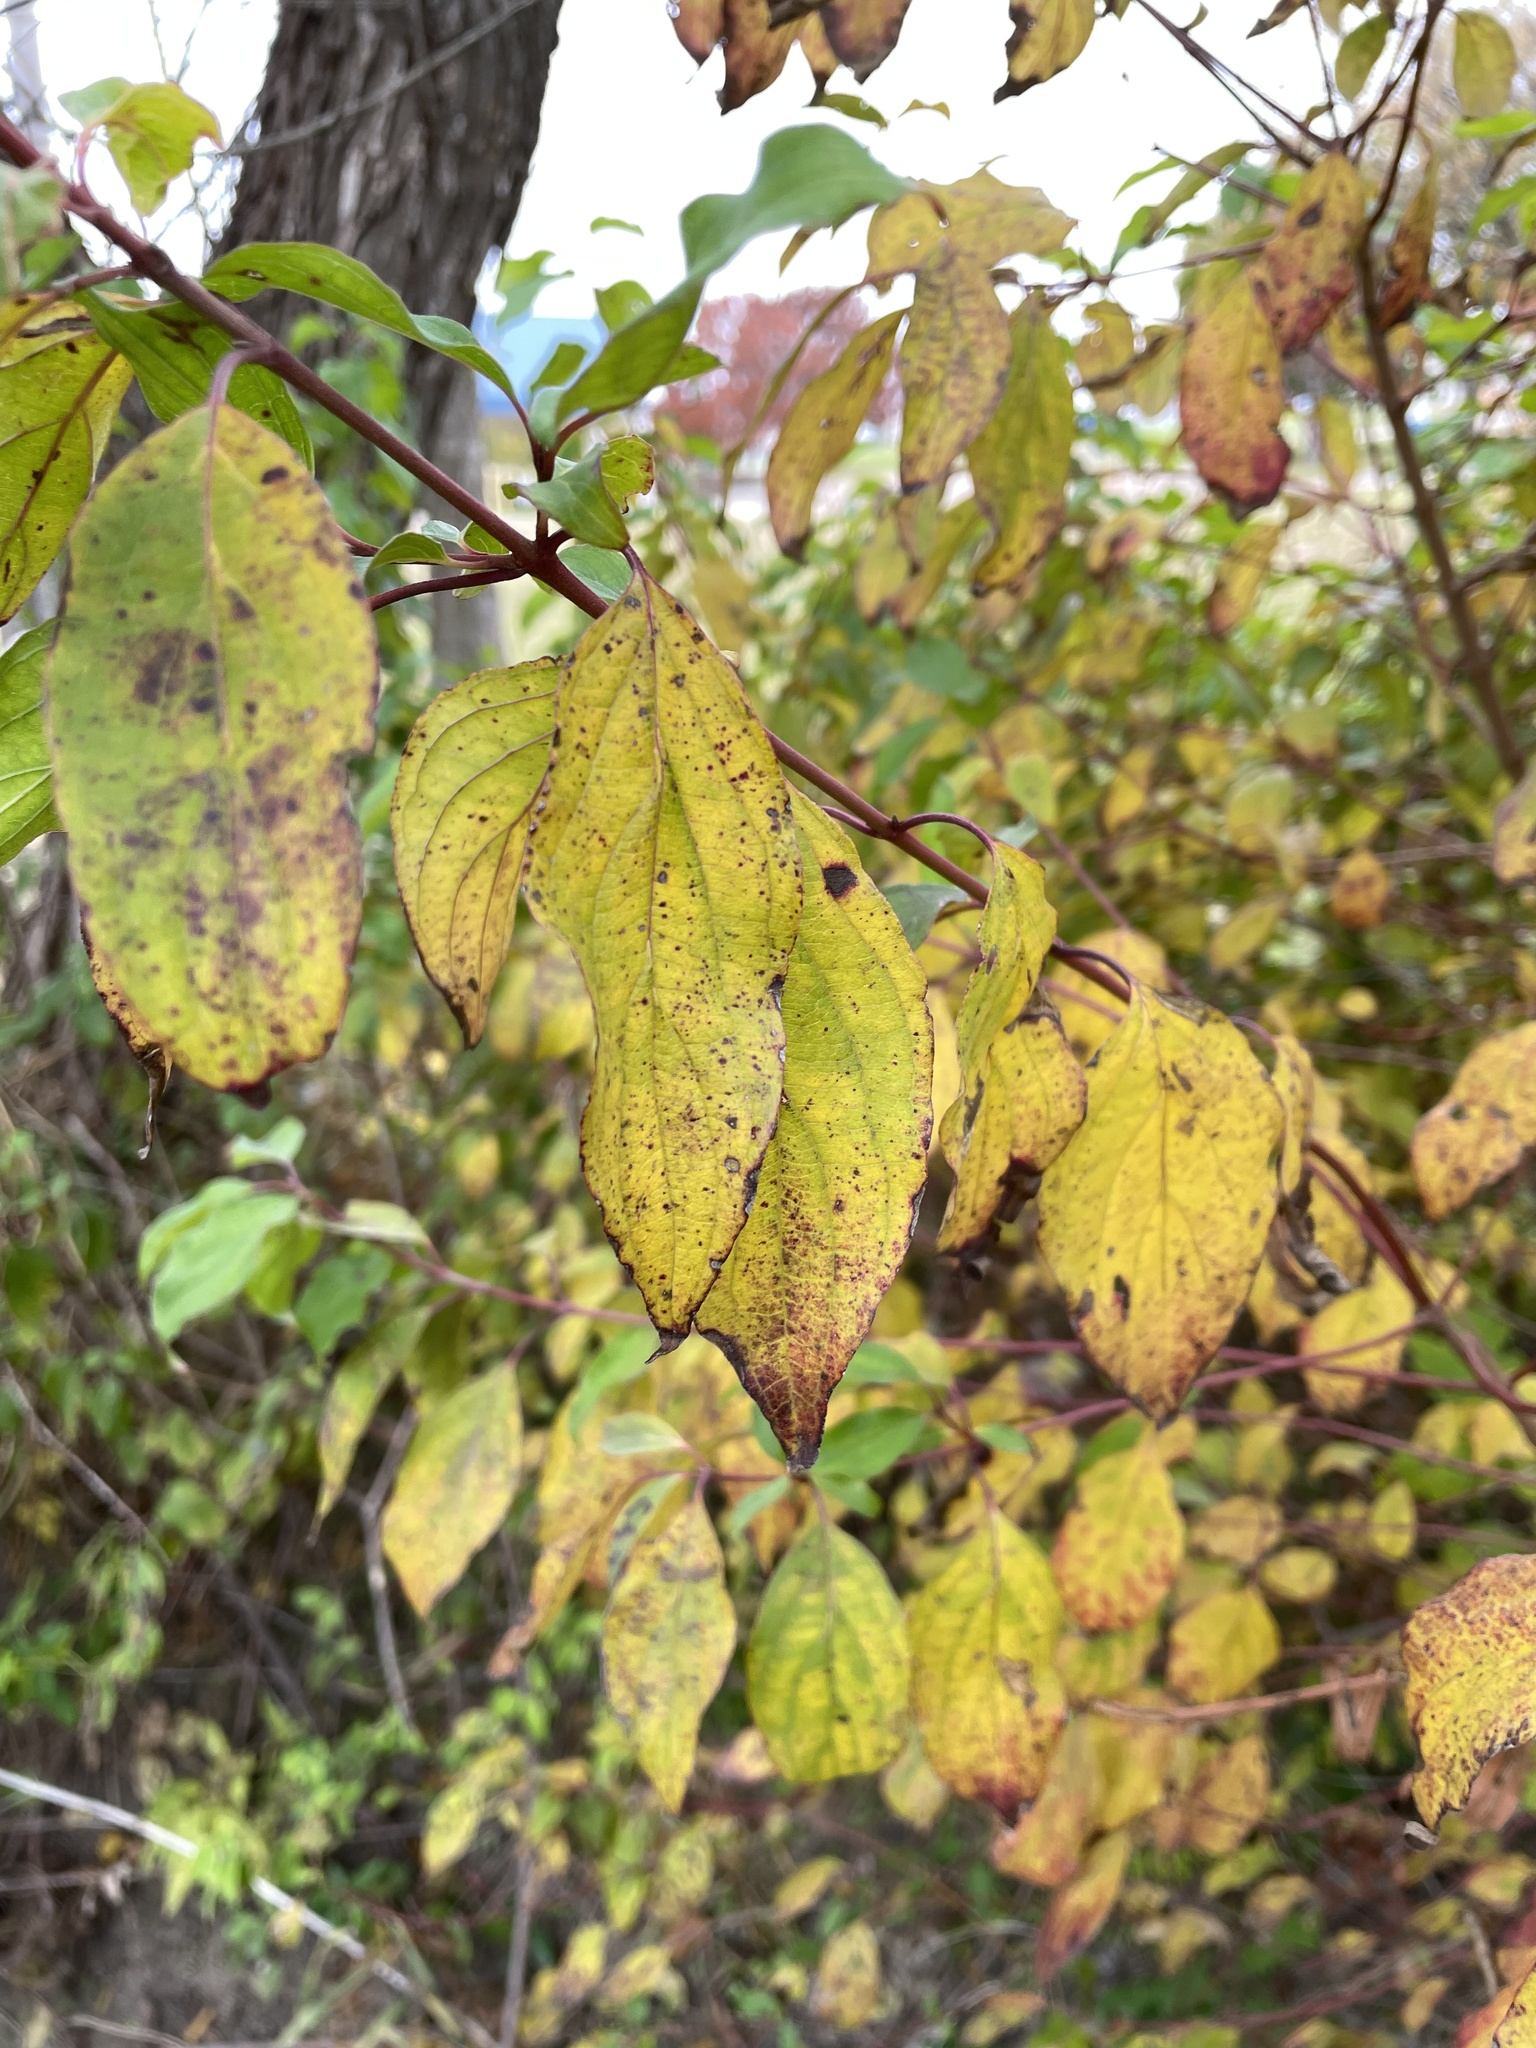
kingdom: Plantae
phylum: Tracheophyta
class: Magnoliopsida
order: Cornales
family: Cornaceae
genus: Cornus
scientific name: Cornus drummondii
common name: Rough-leaf dogwood
